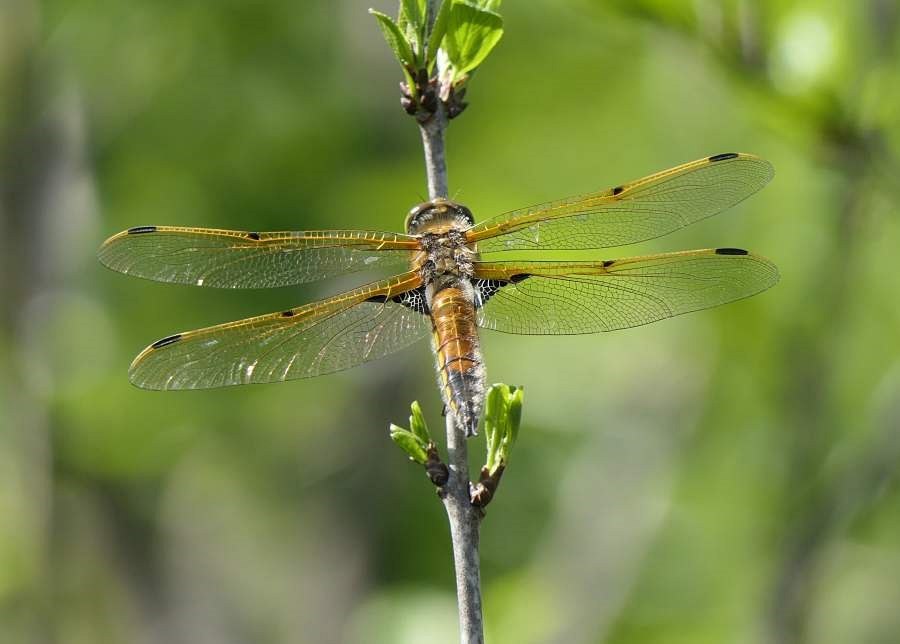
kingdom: Animalia
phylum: Arthropoda
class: Insecta
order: Odonata
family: Libellulidae
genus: Libellula
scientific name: Libellula quadrimaculata
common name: Four-spotted chaser
